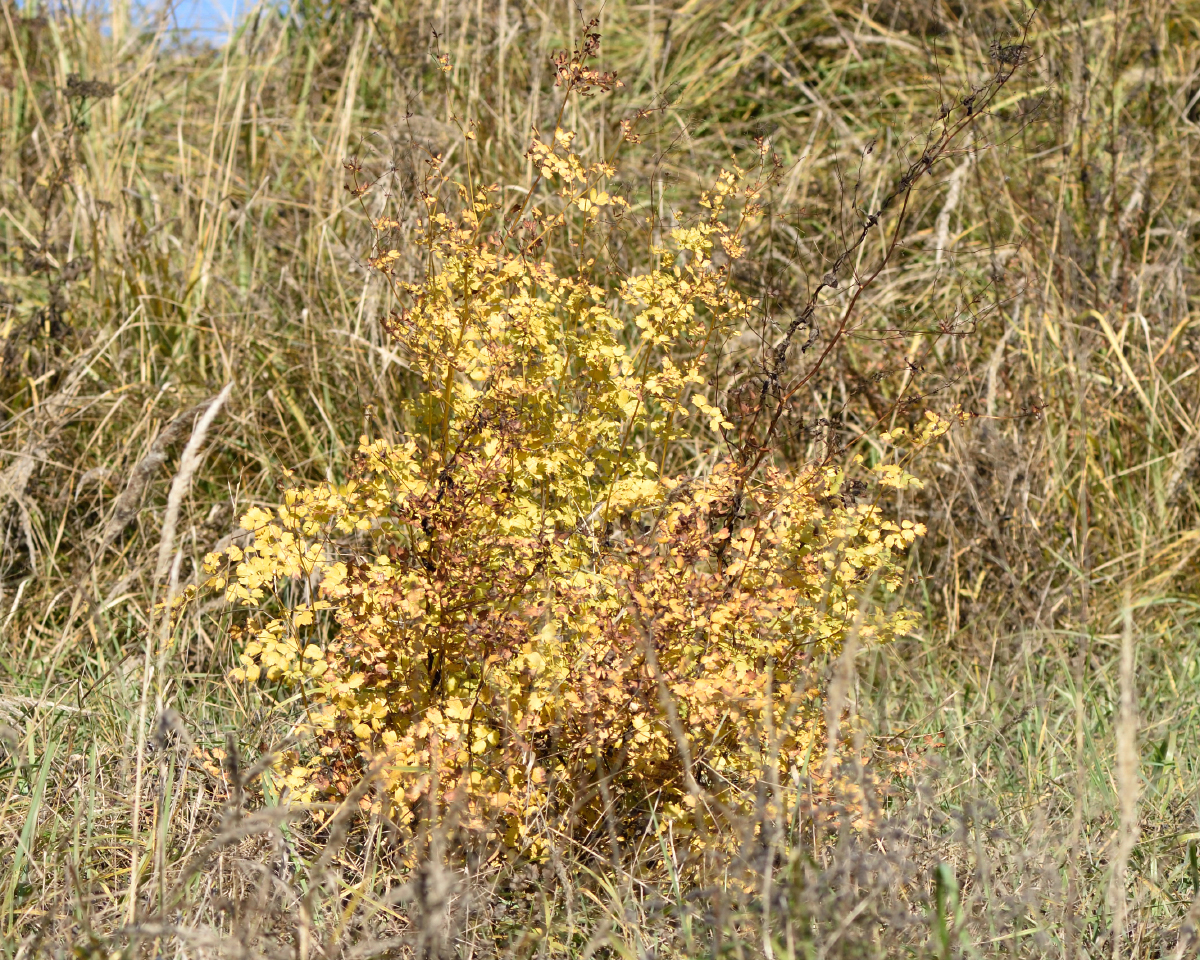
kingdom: Plantae
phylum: Tracheophyta
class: Magnoliopsida
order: Ranunculales
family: Ranunculaceae
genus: Thalictrum
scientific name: Thalictrum minus
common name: Lesser meadow-rue
